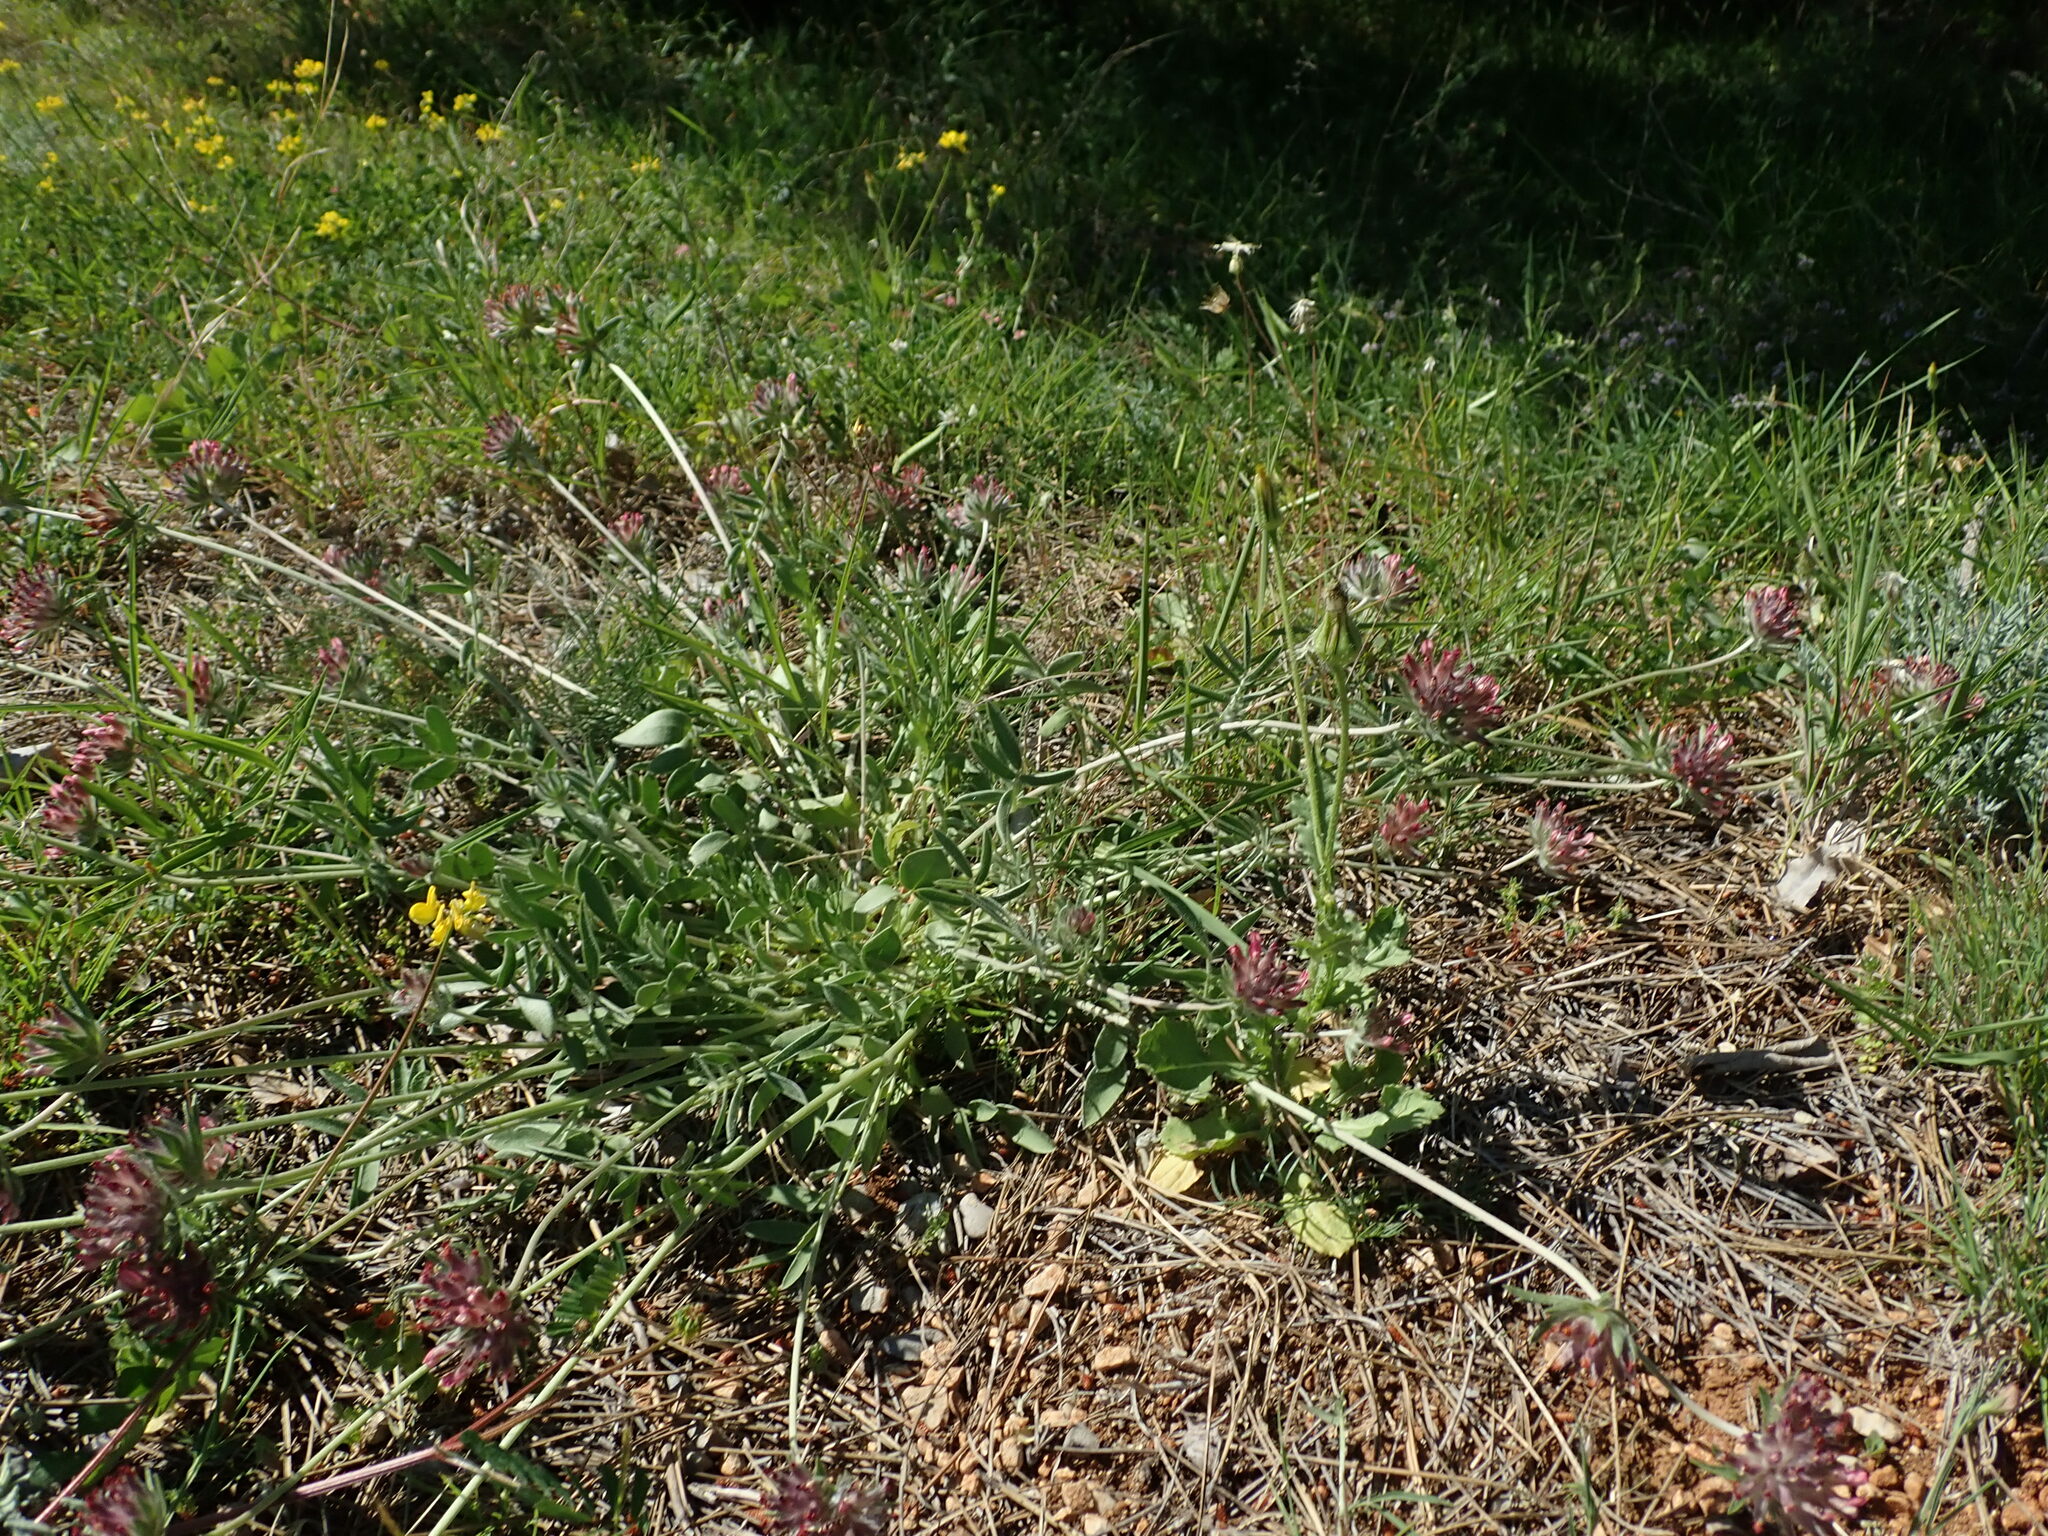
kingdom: Plantae
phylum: Tracheophyta
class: Magnoliopsida
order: Fabales
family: Fabaceae
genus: Anthyllis
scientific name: Anthyllis vulneraria
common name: Kidney vetch
